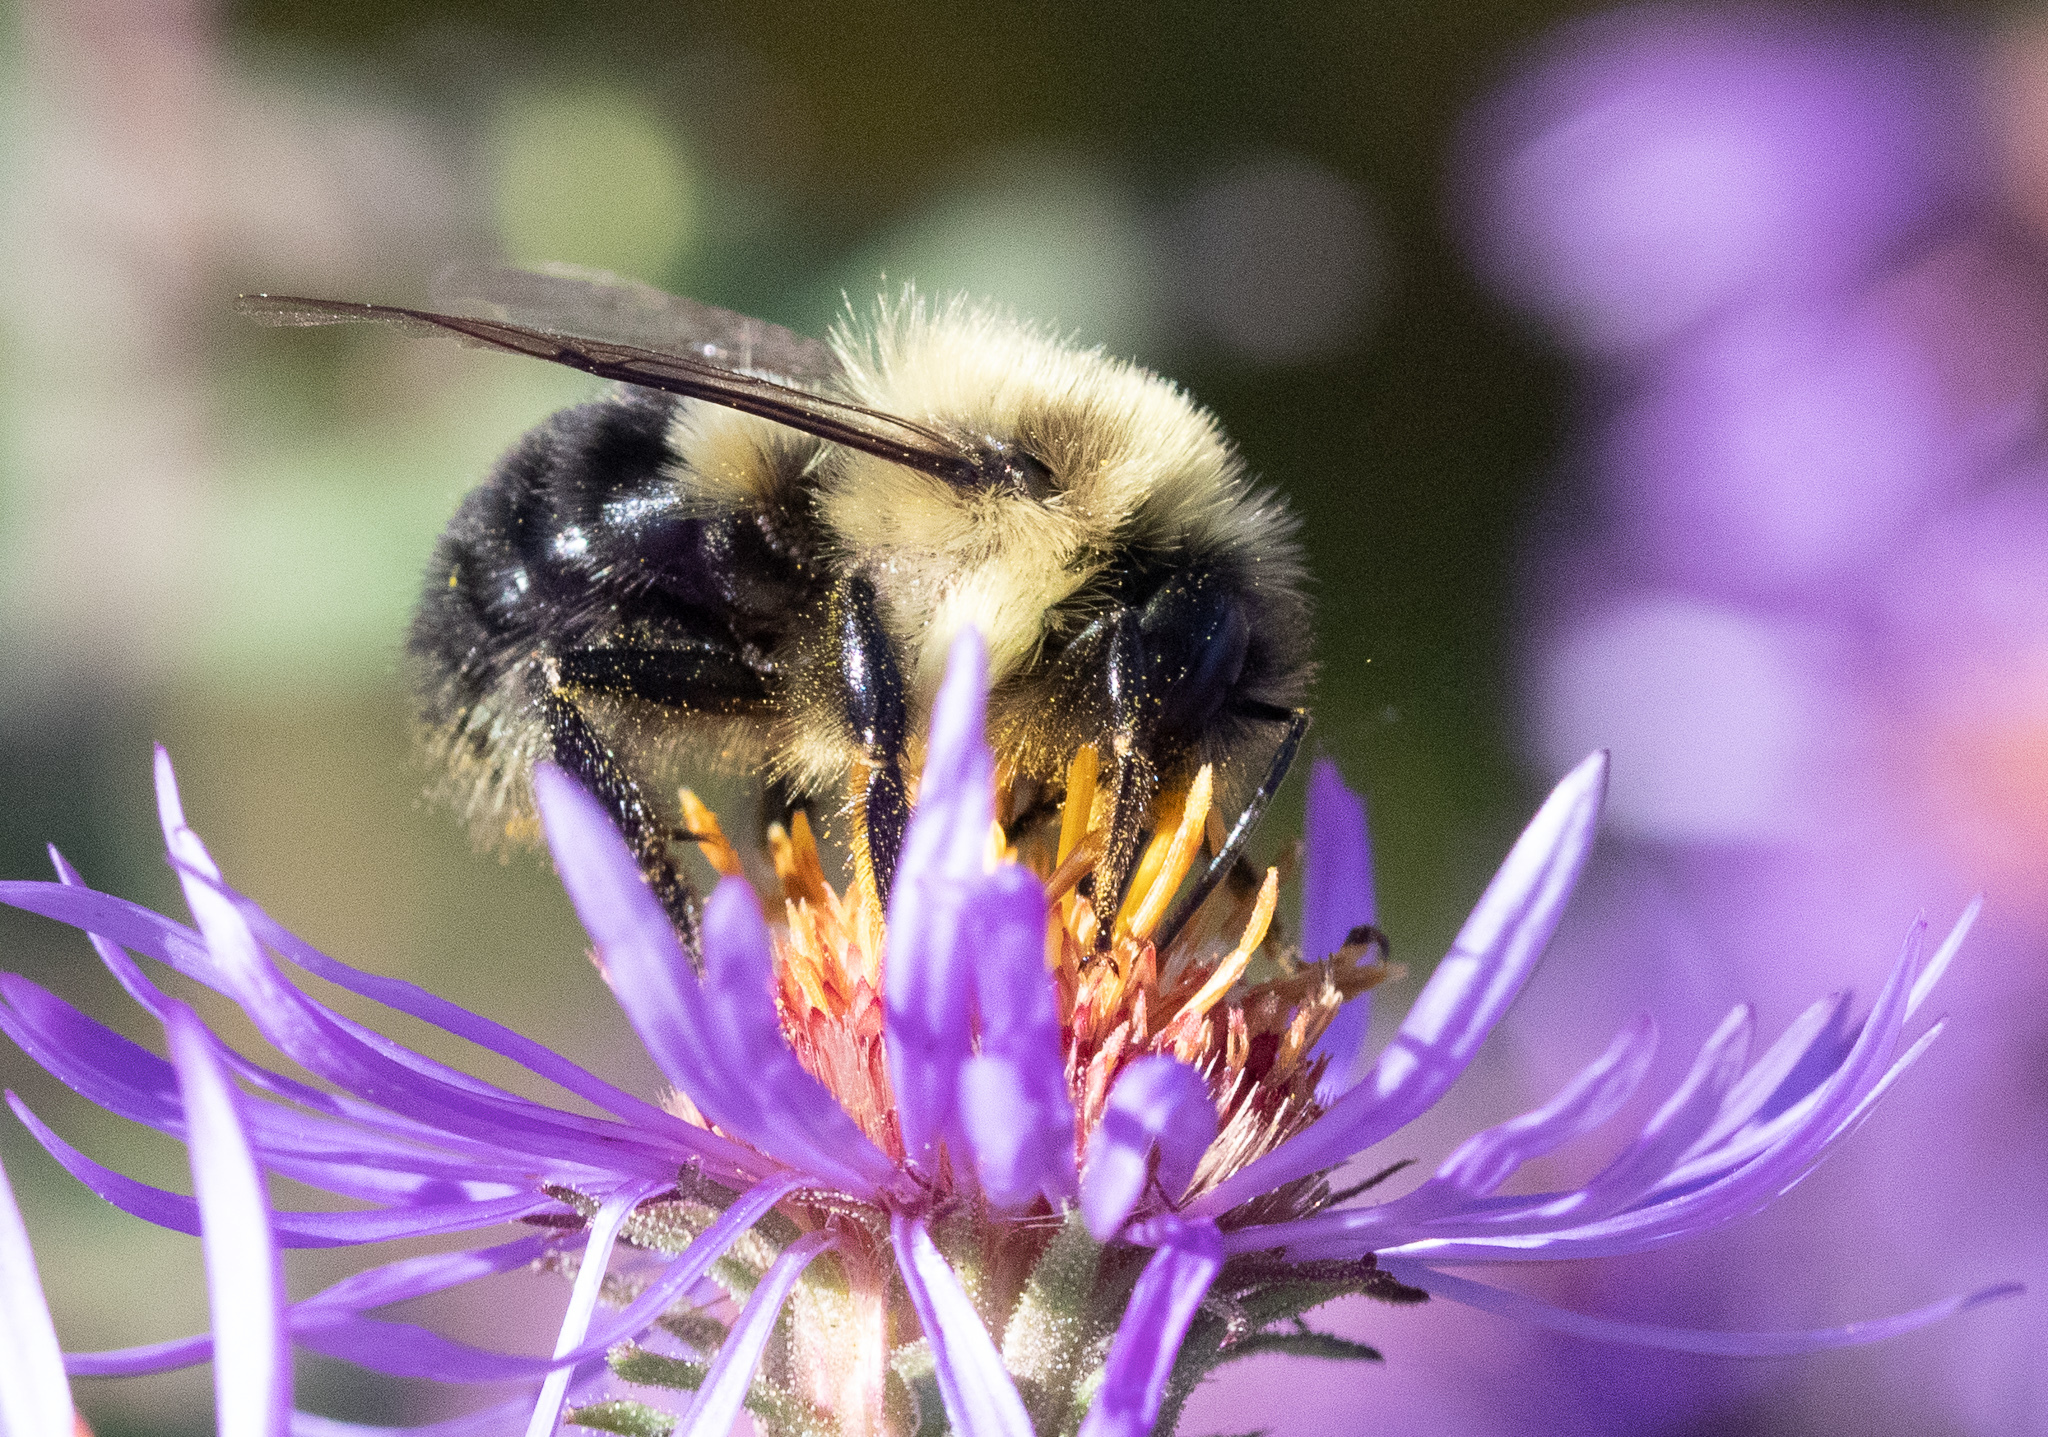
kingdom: Animalia
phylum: Arthropoda
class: Insecta
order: Hymenoptera
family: Apidae
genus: Bombus
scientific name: Bombus impatiens
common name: Common eastern bumble bee
